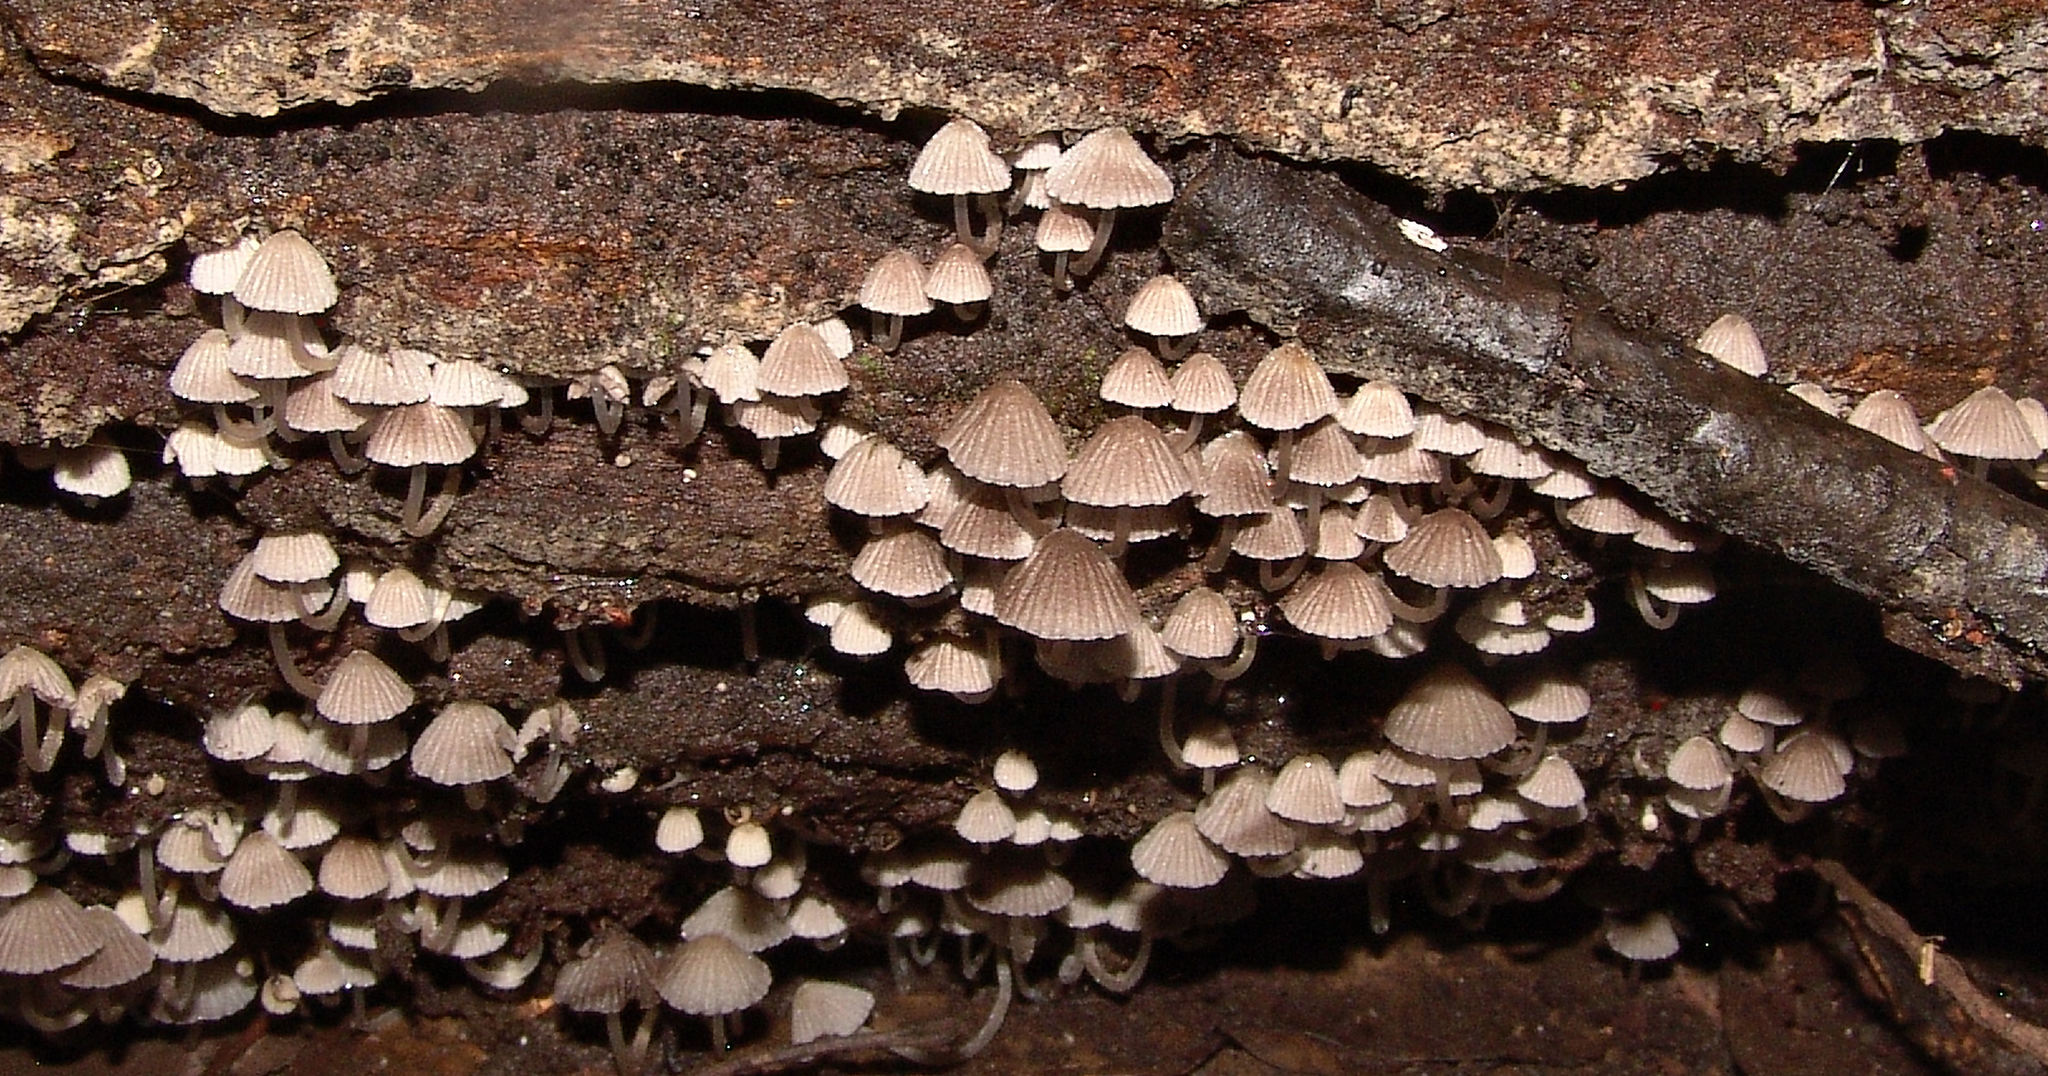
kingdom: Fungi
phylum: Basidiomycota
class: Agaricomycetes
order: Agaricales
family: Psathyrellaceae
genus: Coprinellus
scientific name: Coprinellus disseminatus
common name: Fairies' bonnets
